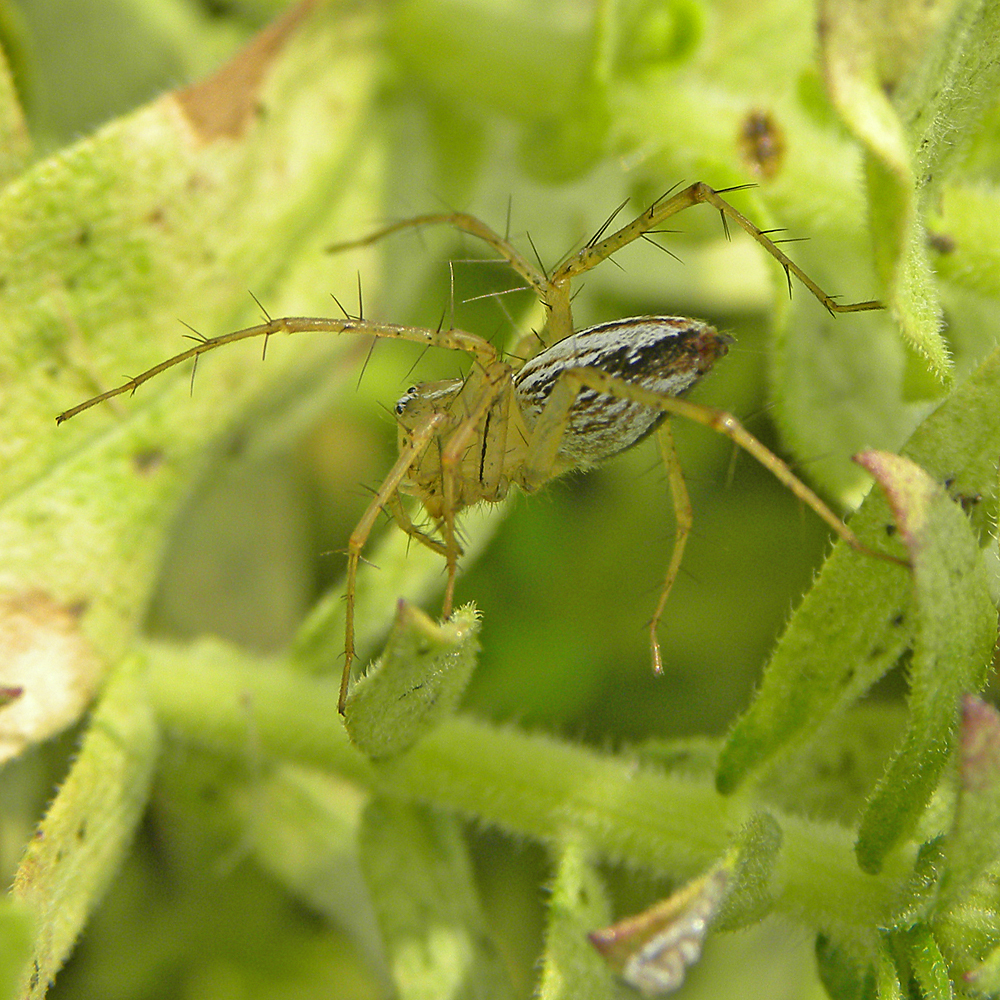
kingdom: Animalia
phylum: Arthropoda
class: Arachnida
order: Araneae
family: Oxyopidae
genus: Oxyopes
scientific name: Oxyopes salticus
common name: Lynx spiders
